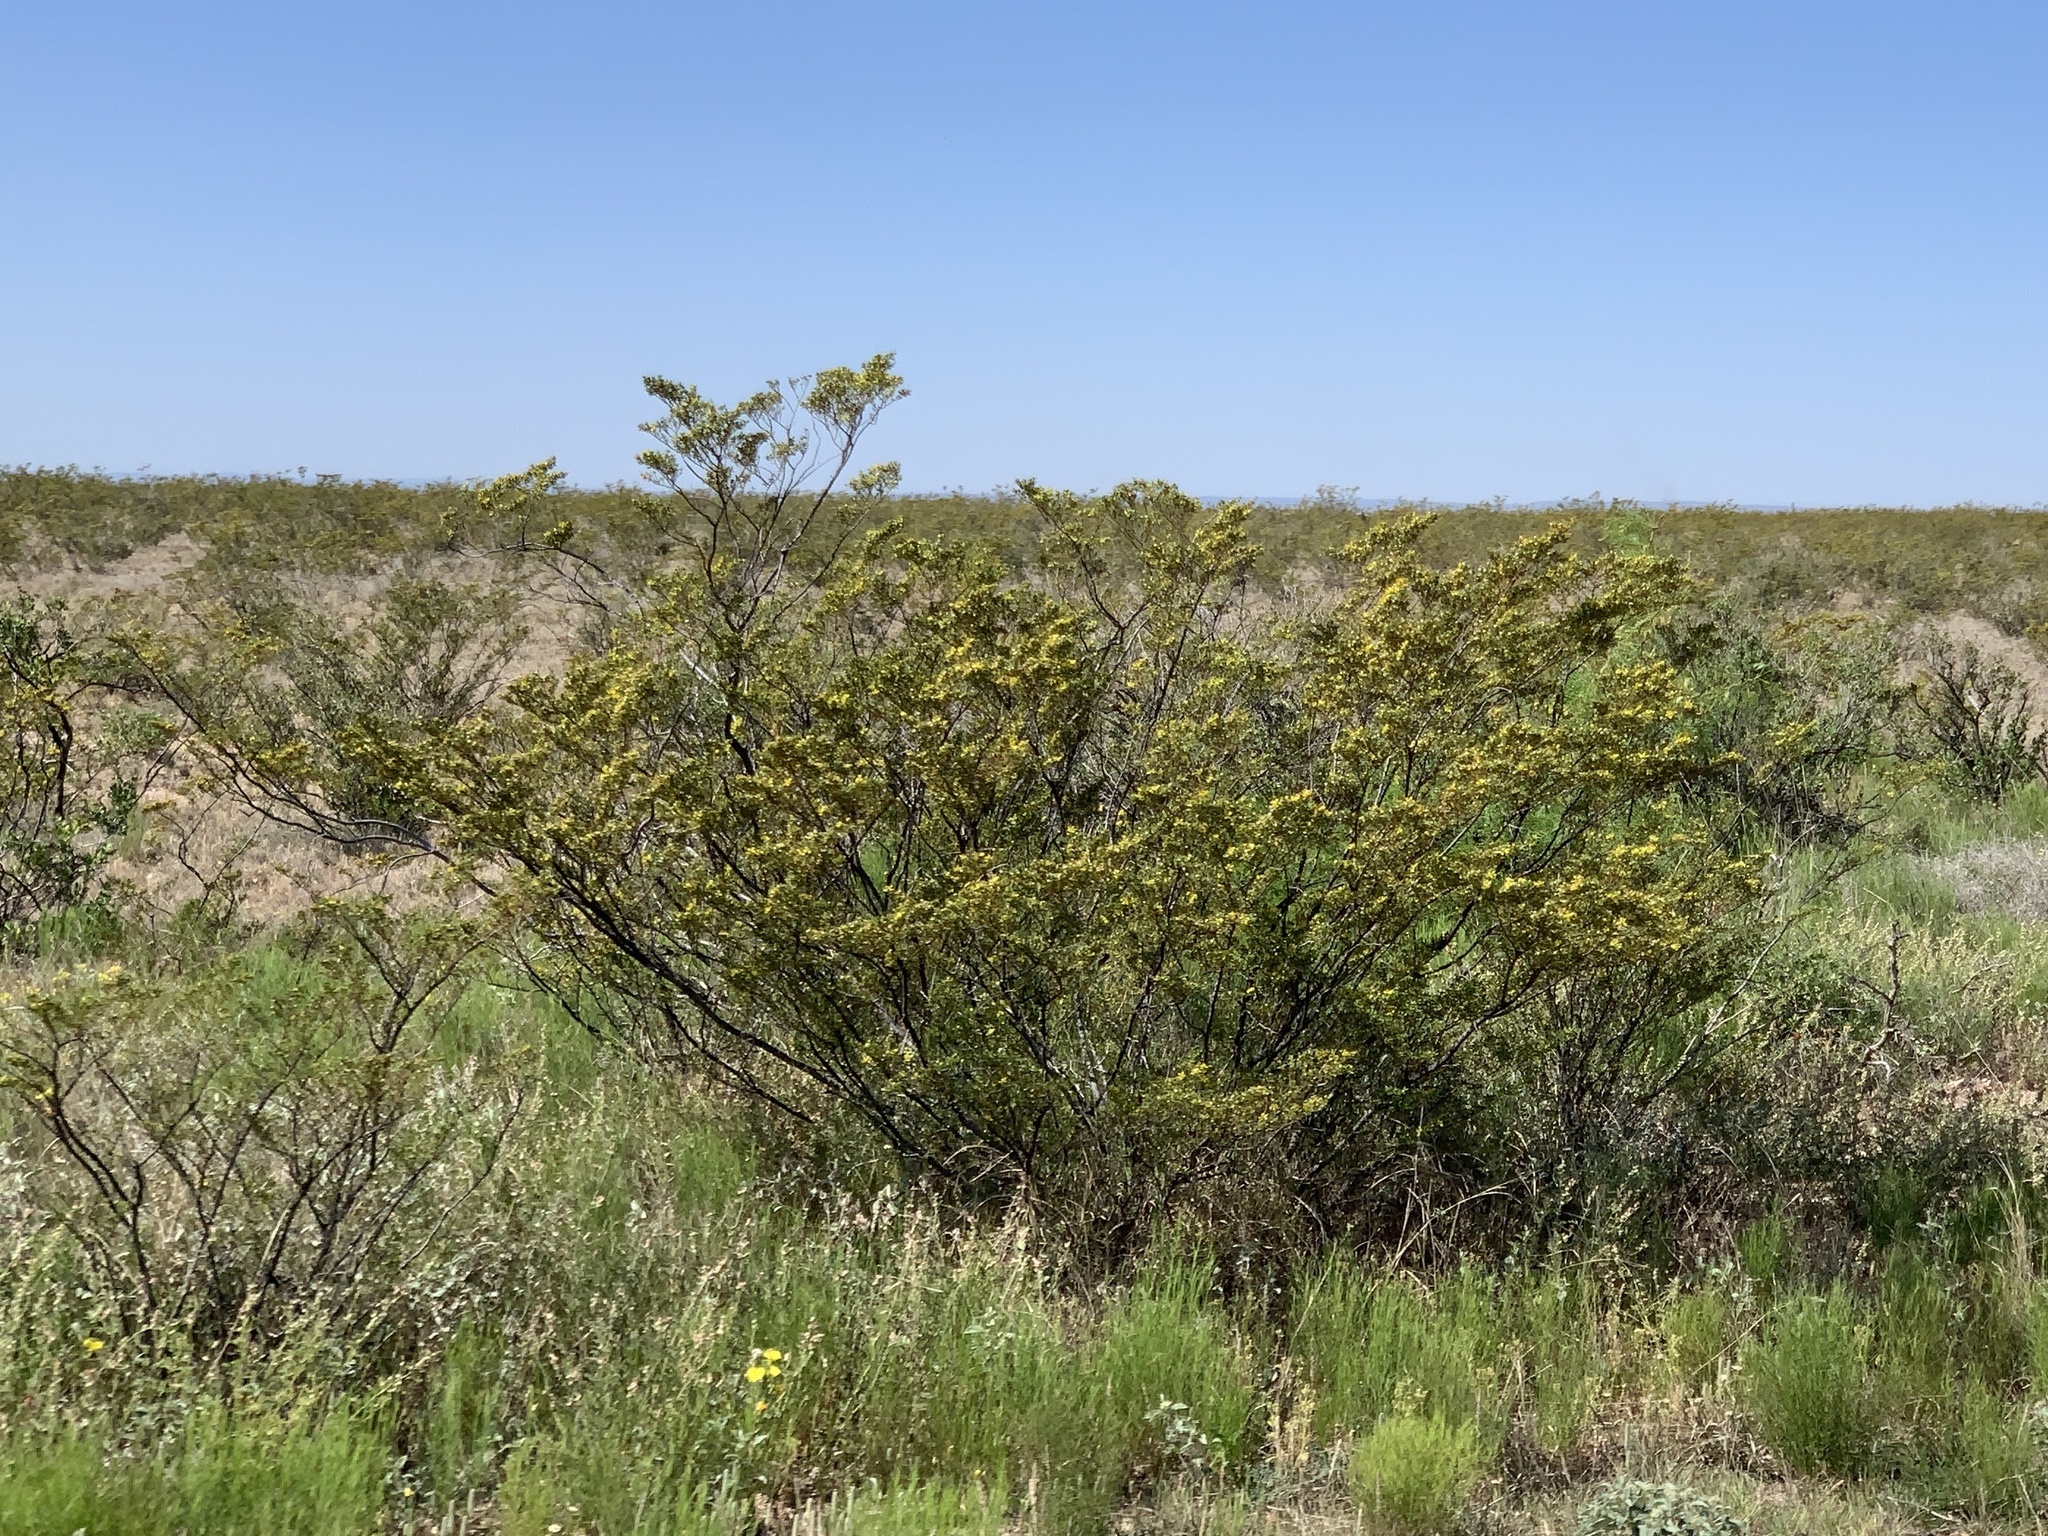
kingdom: Plantae
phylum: Tracheophyta
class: Magnoliopsida
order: Zygophyllales
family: Zygophyllaceae
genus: Larrea
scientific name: Larrea tridentata
